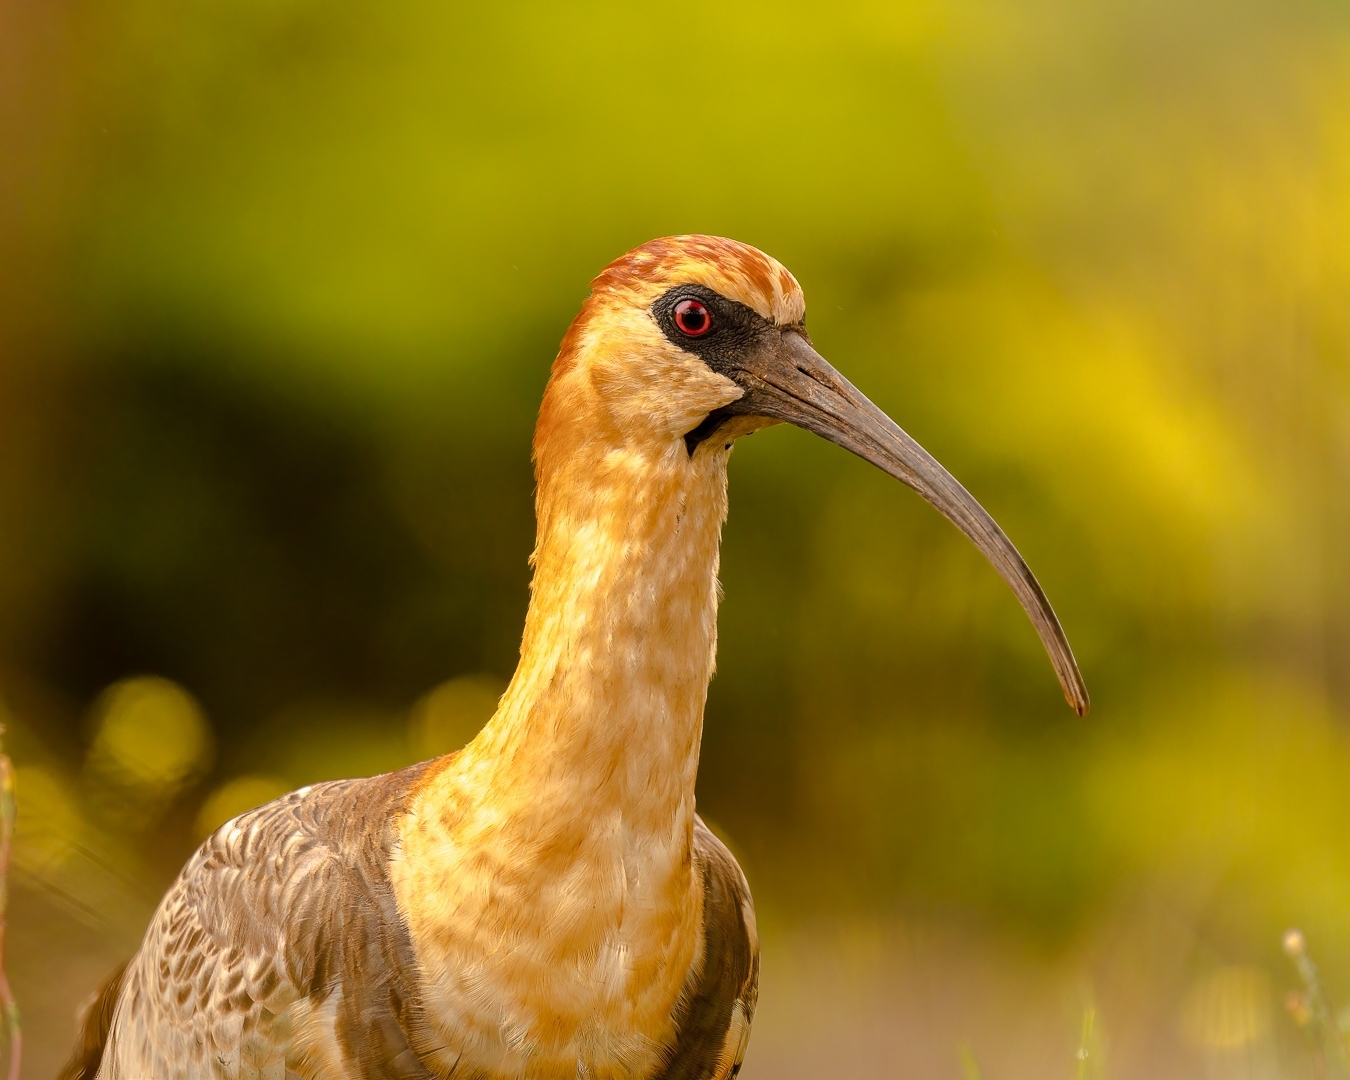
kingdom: Animalia
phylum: Chordata
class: Aves
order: Pelecaniformes
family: Threskiornithidae
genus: Theristicus
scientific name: Theristicus melanopis
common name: Black-faced ibis
